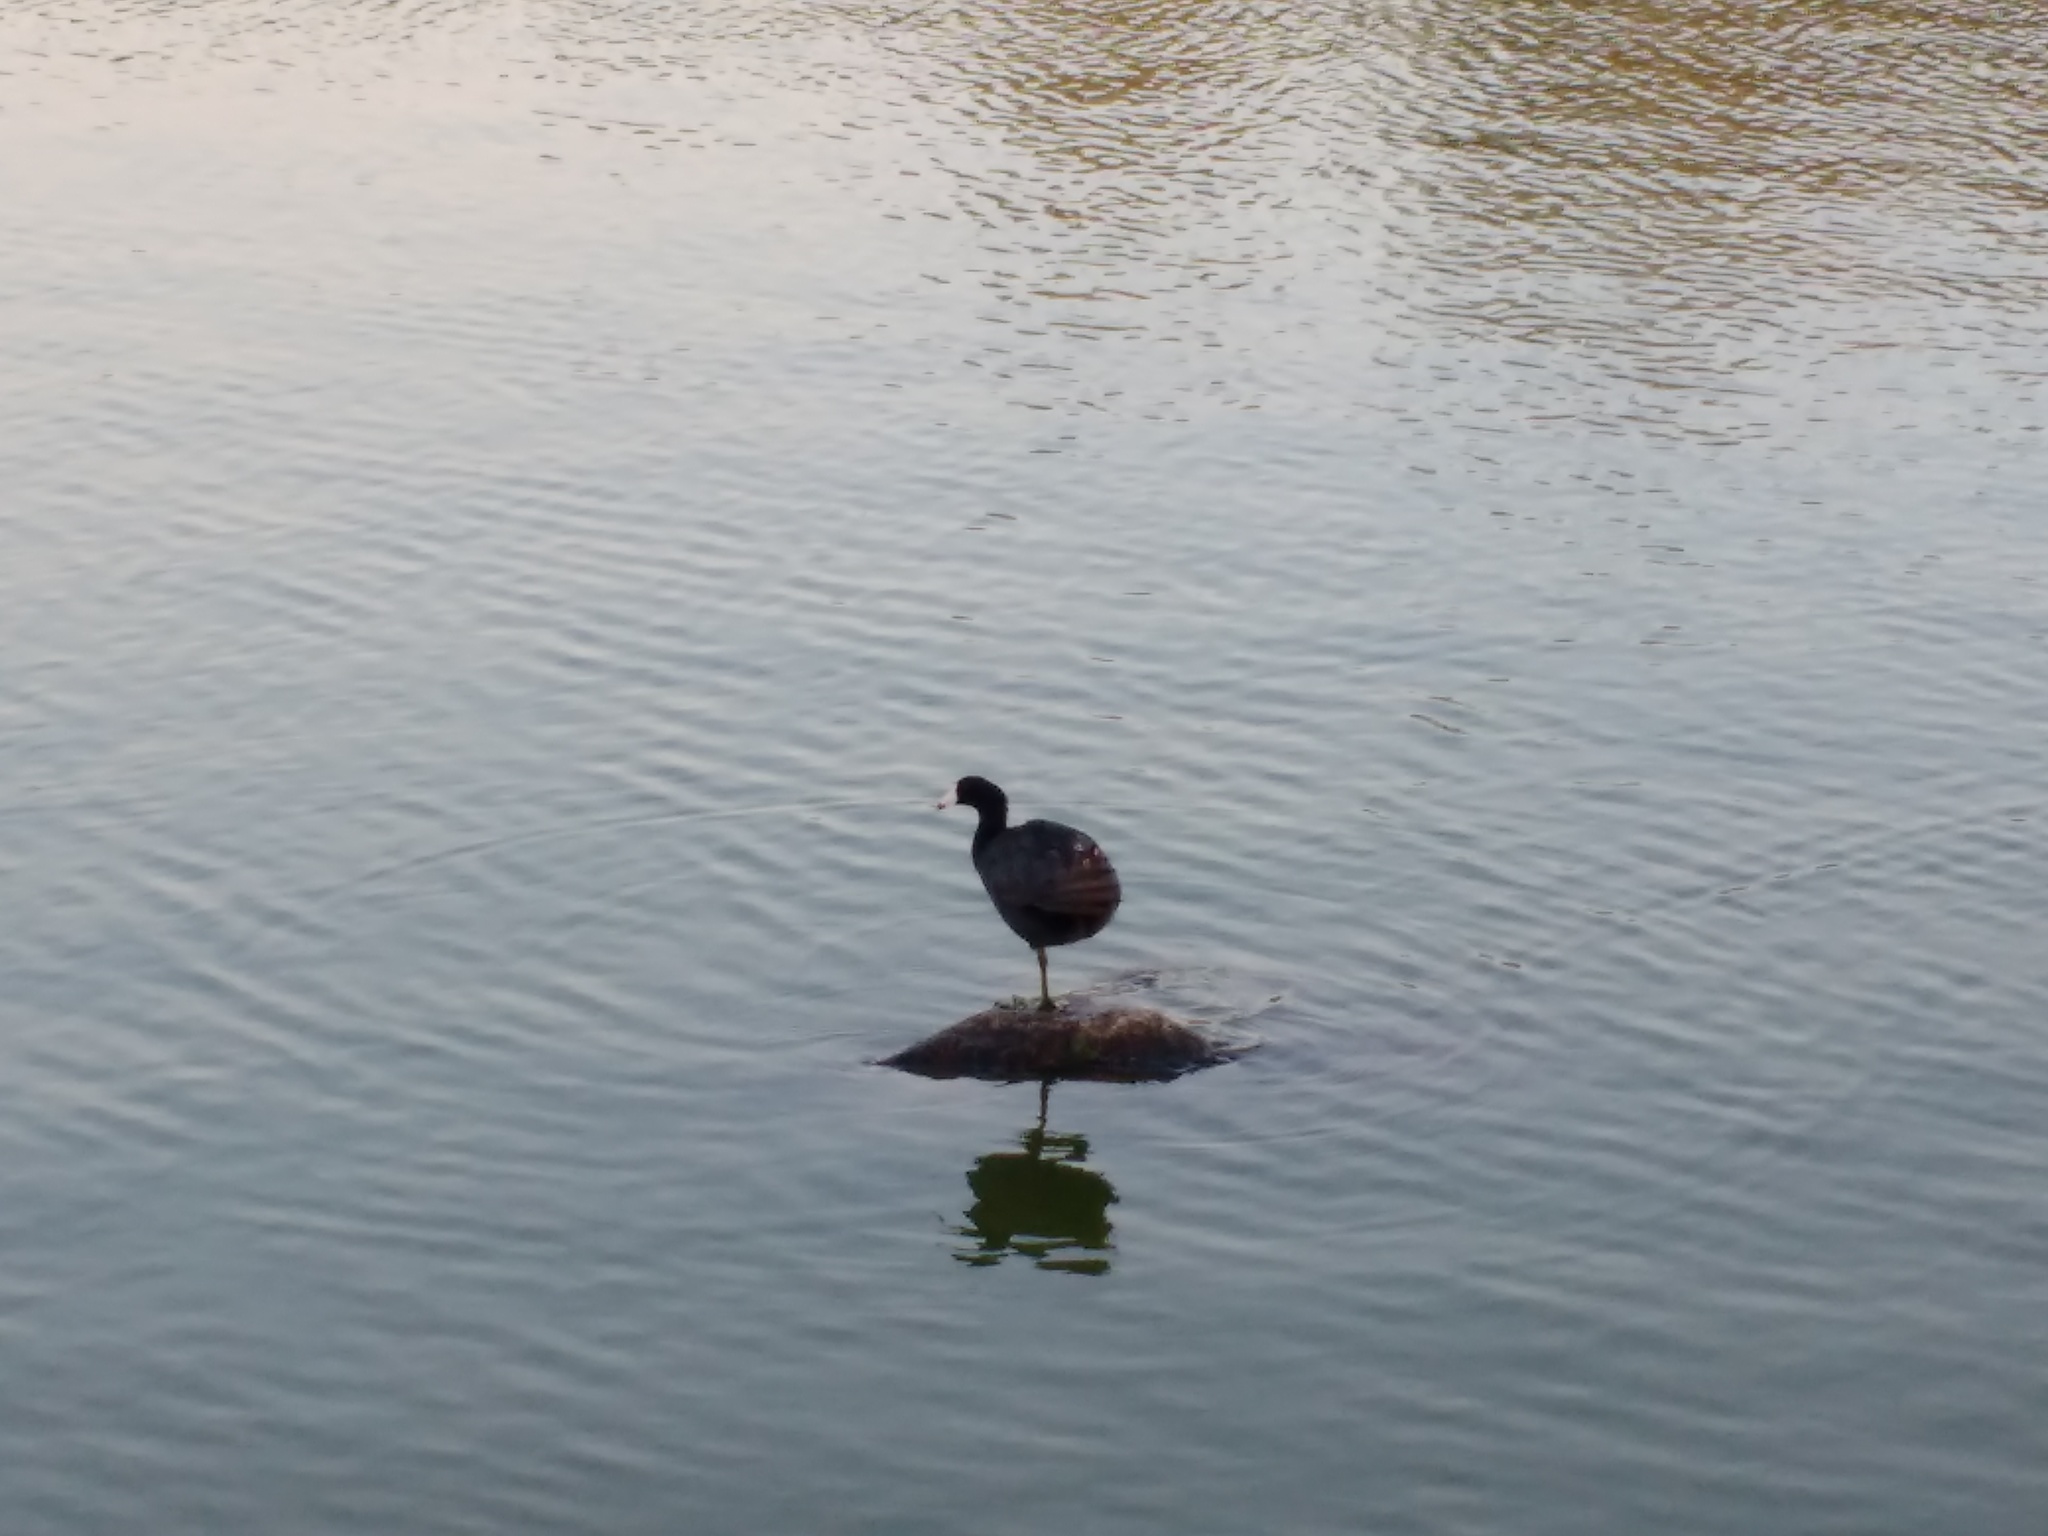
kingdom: Animalia
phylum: Chordata
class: Aves
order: Gruiformes
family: Rallidae
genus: Fulica
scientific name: Fulica americana
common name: American coot
